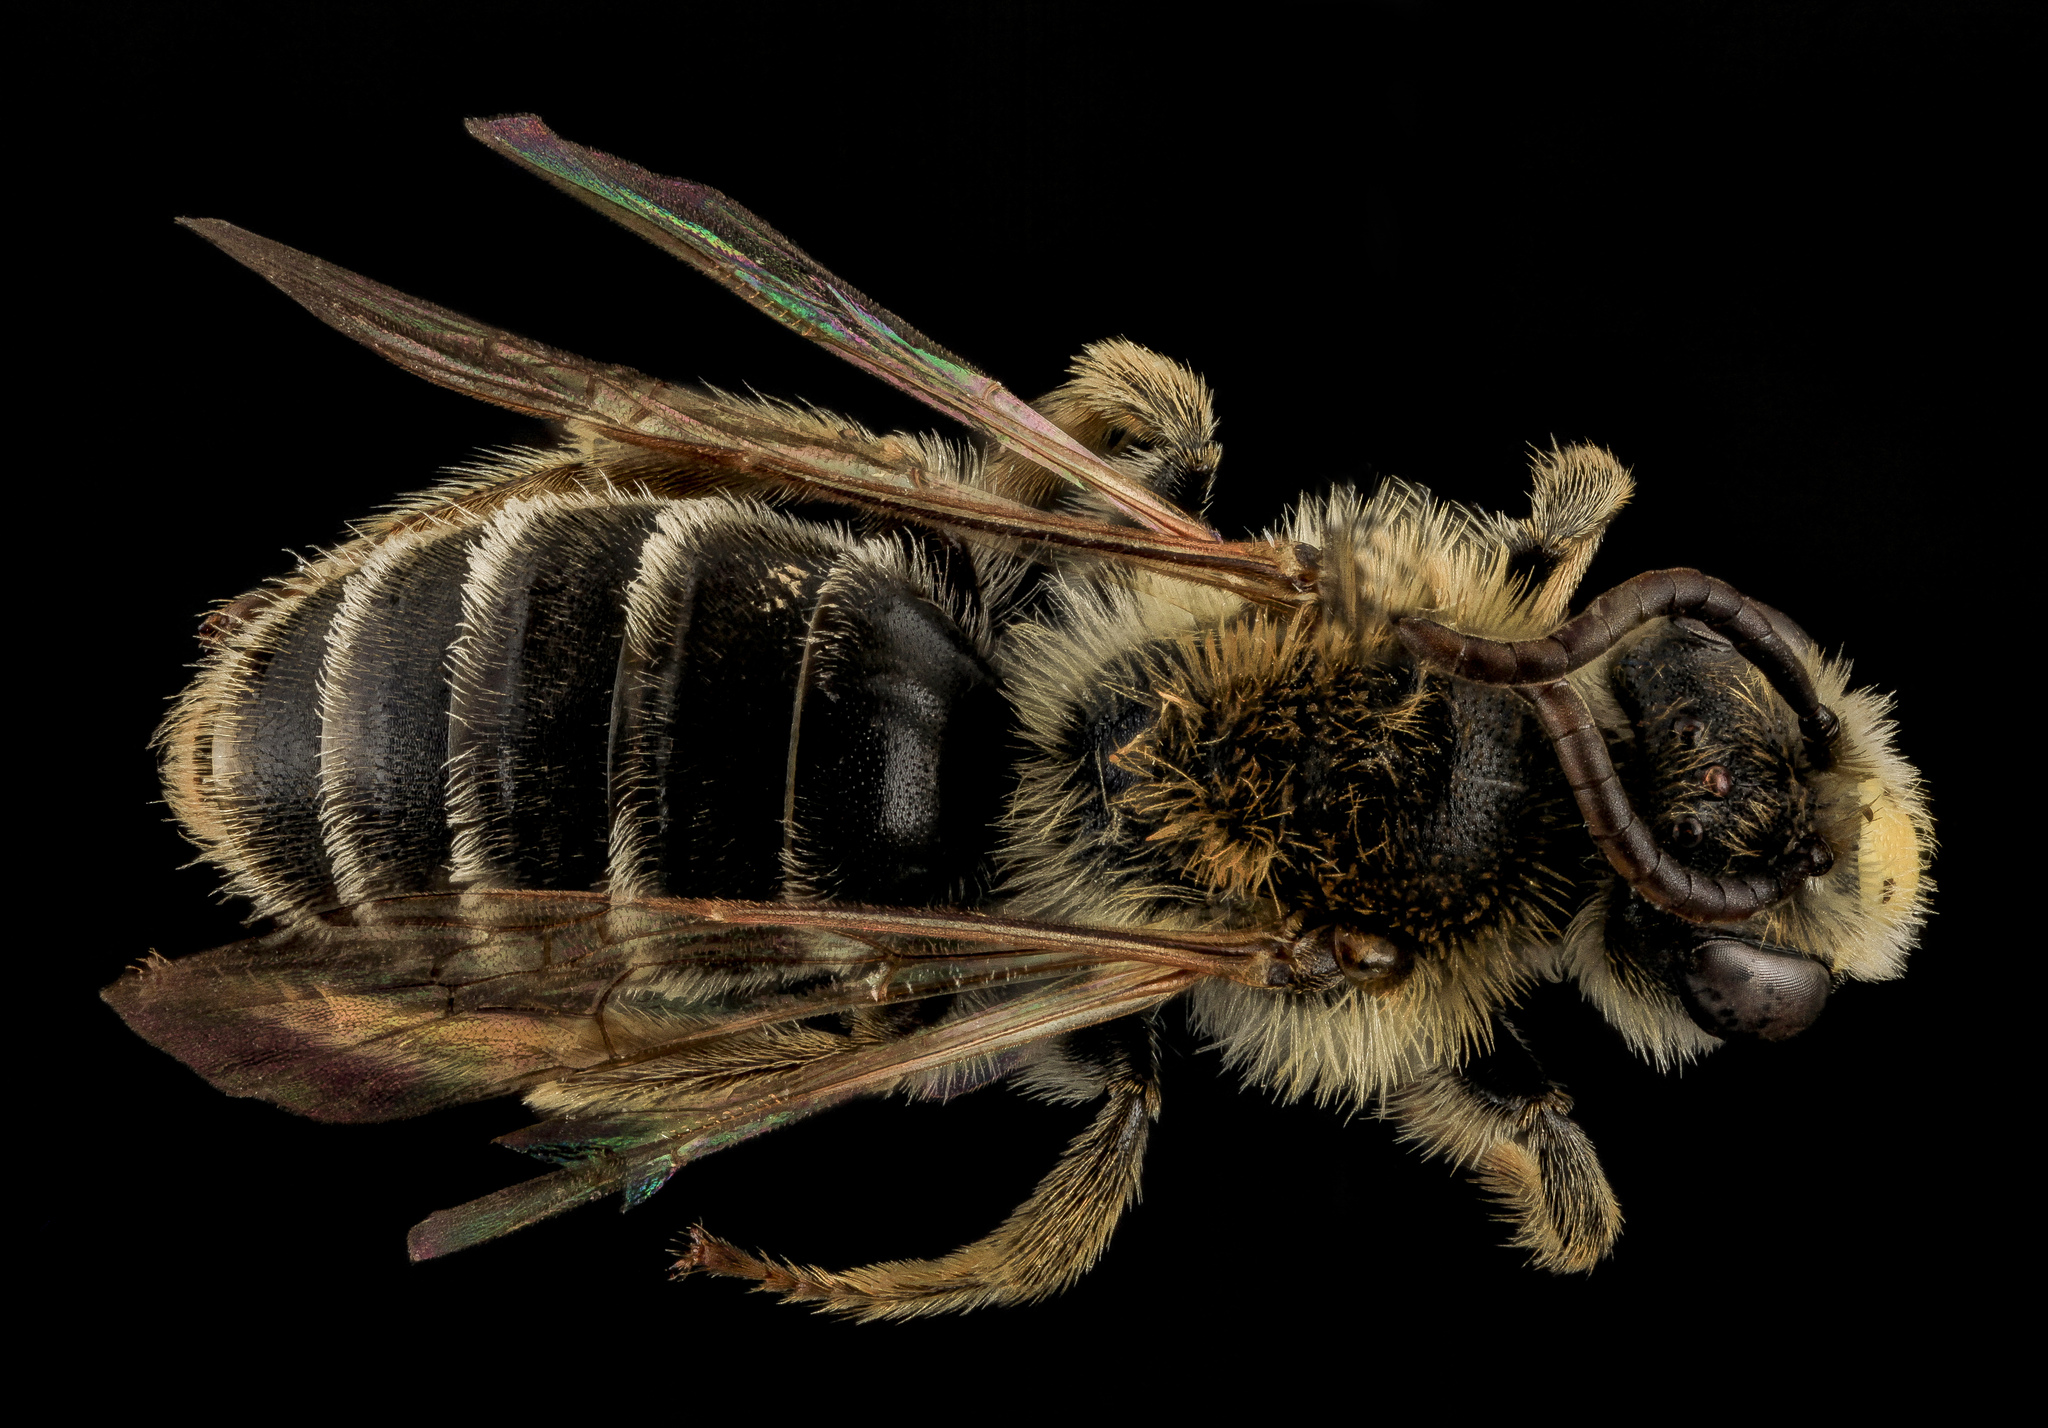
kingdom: Animalia
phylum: Arthropoda
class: Insecta
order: Hymenoptera
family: Andrenidae
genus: Andrena
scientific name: Andrena cragini
